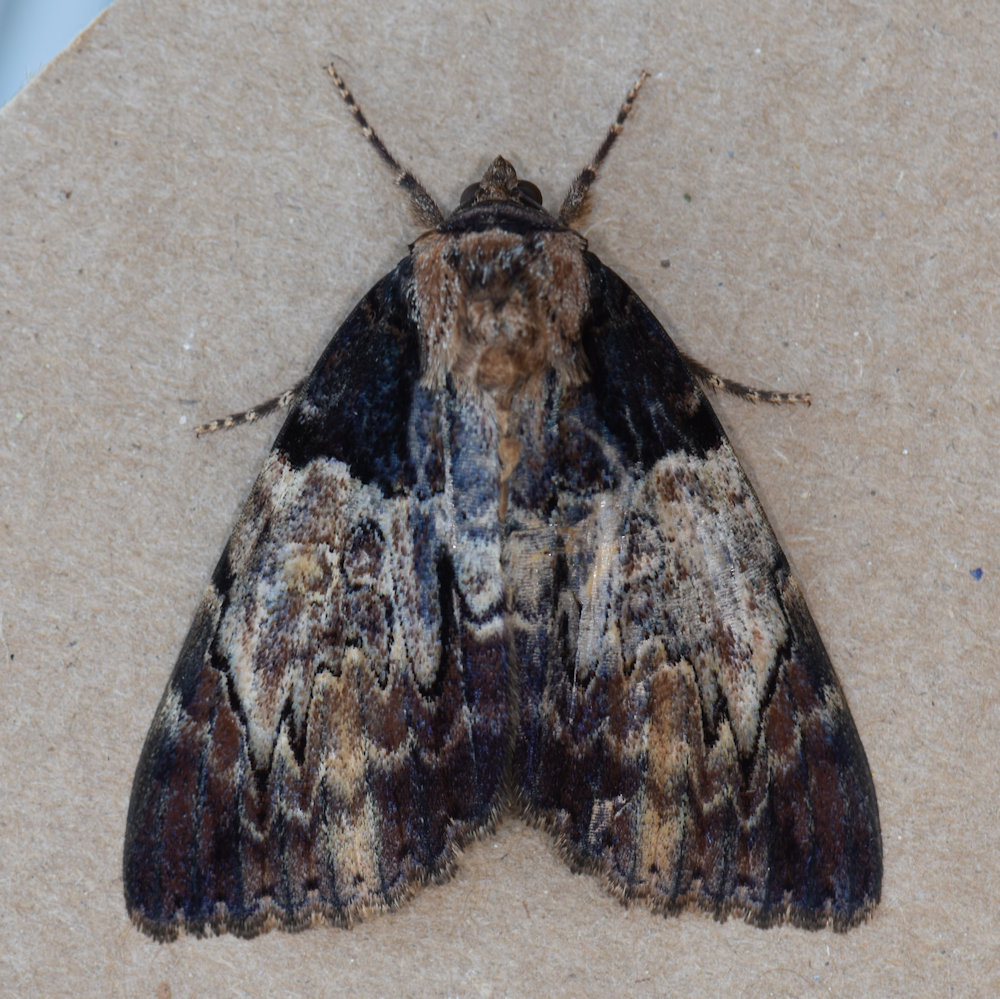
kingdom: Animalia
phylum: Arthropoda
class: Insecta
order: Lepidoptera
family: Erebidae
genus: Catocala
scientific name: Catocala nebulosa
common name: Clouded underwing
